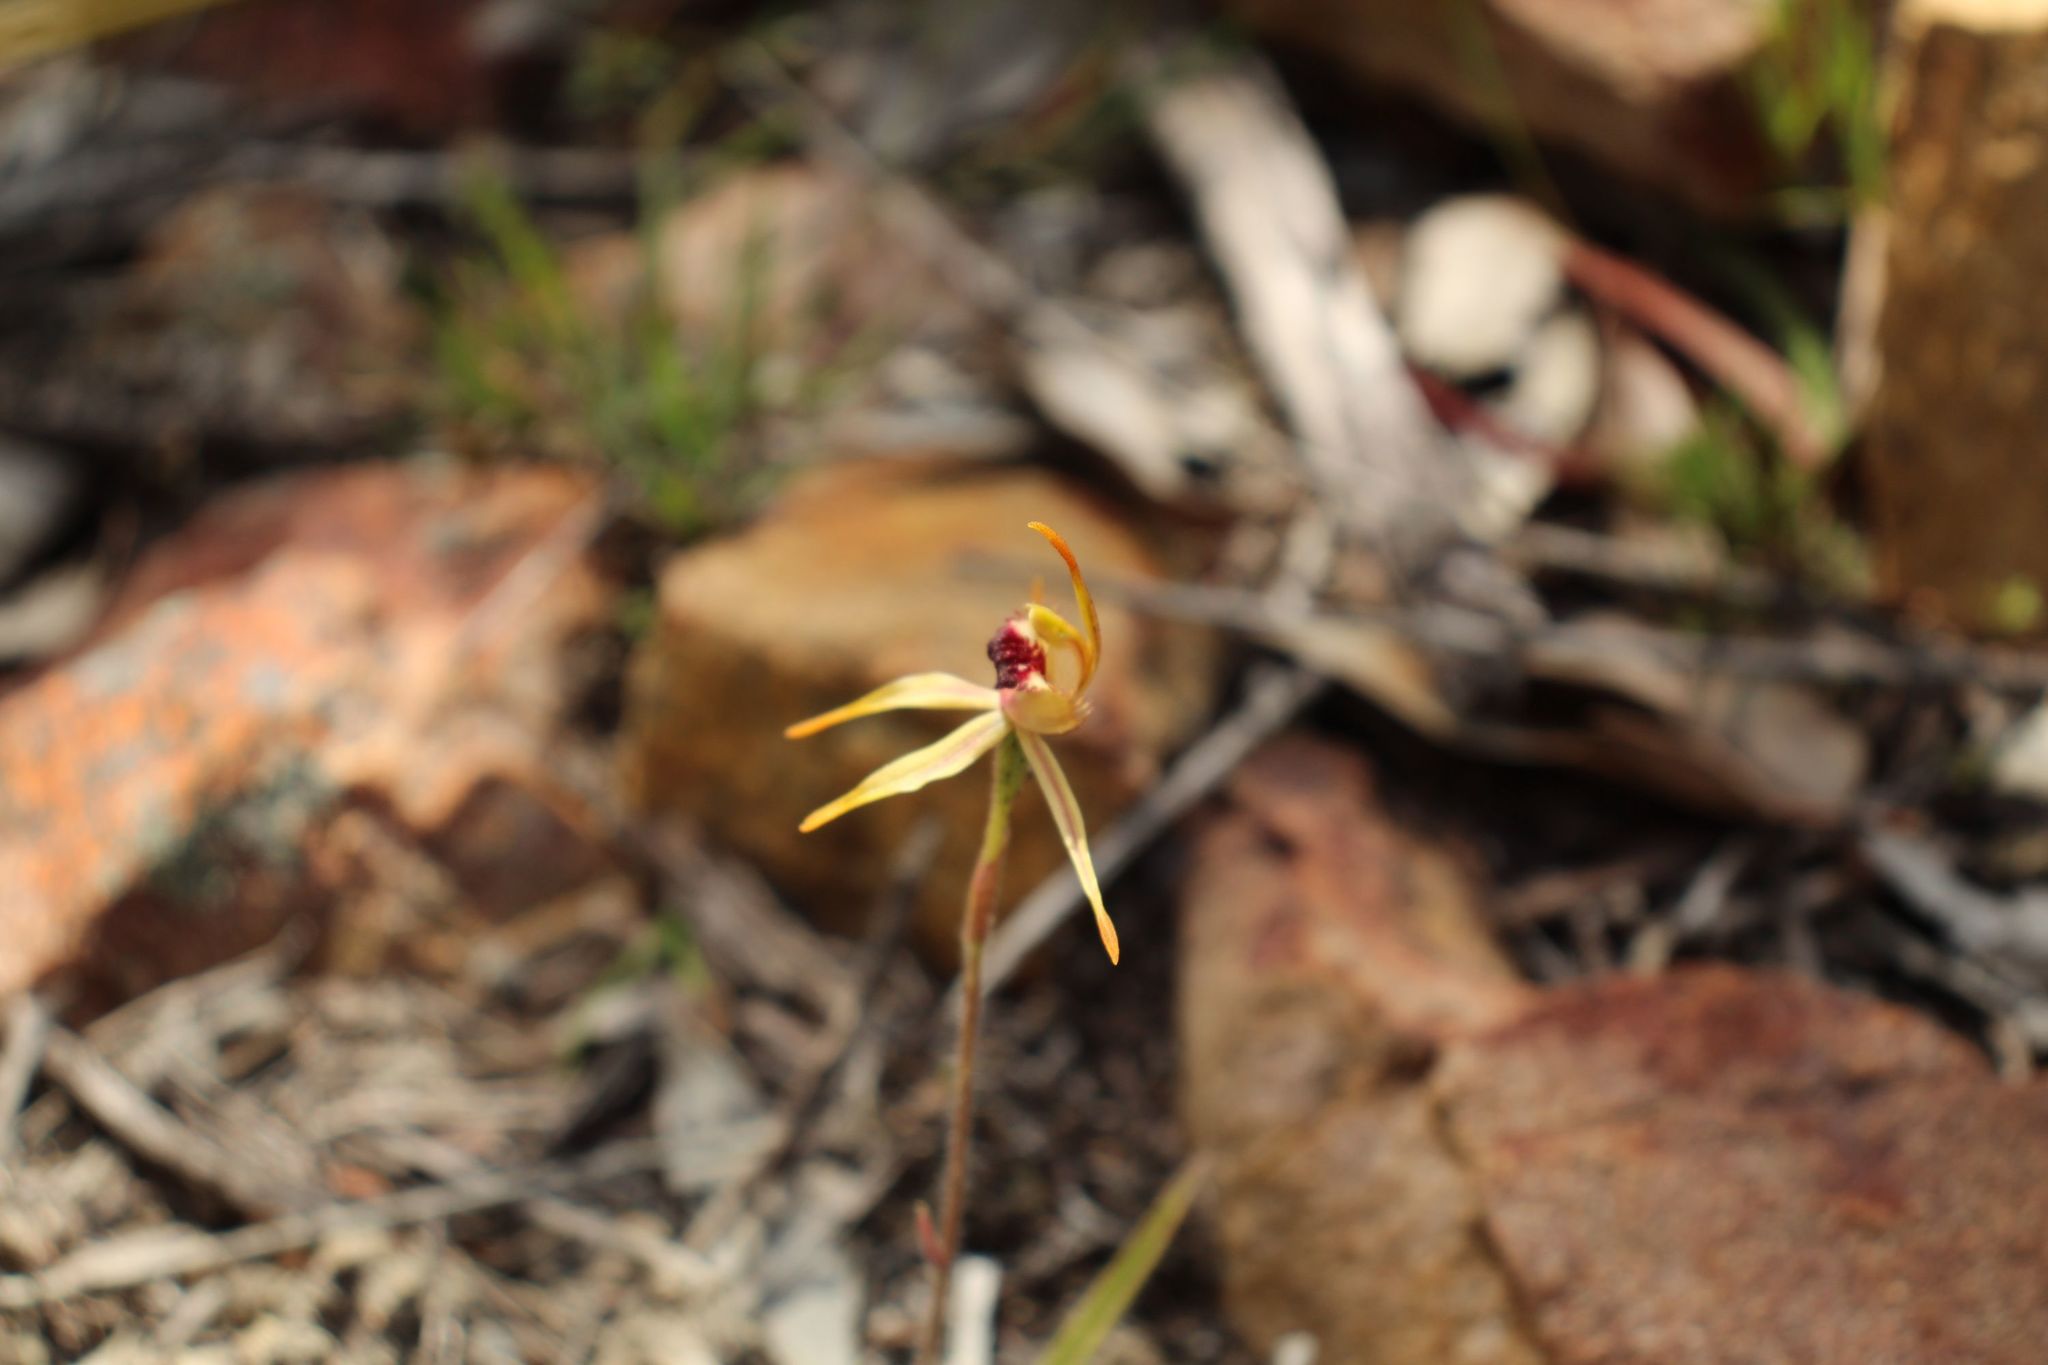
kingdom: Plantae
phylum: Tracheophyta
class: Liliopsida
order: Asparagales
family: Orchidaceae
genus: Caladenia
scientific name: Caladenia ensata
